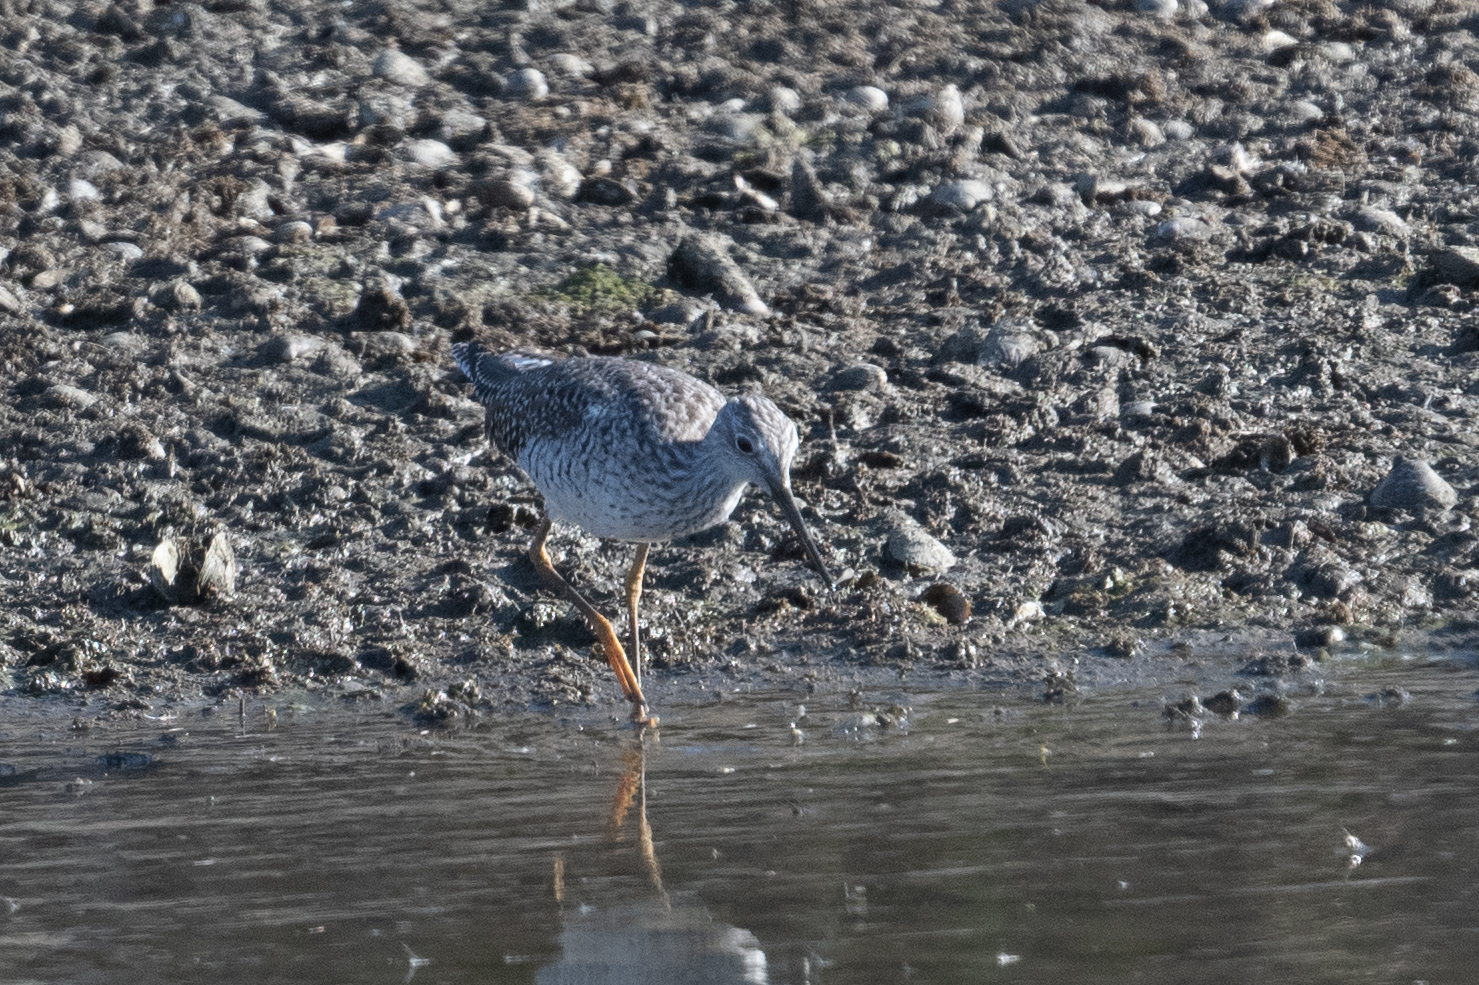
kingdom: Animalia
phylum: Chordata
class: Aves
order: Charadriiformes
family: Scolopacidae
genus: Tringa
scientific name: Tringa melanoleuca
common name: Greater yellowlegs
